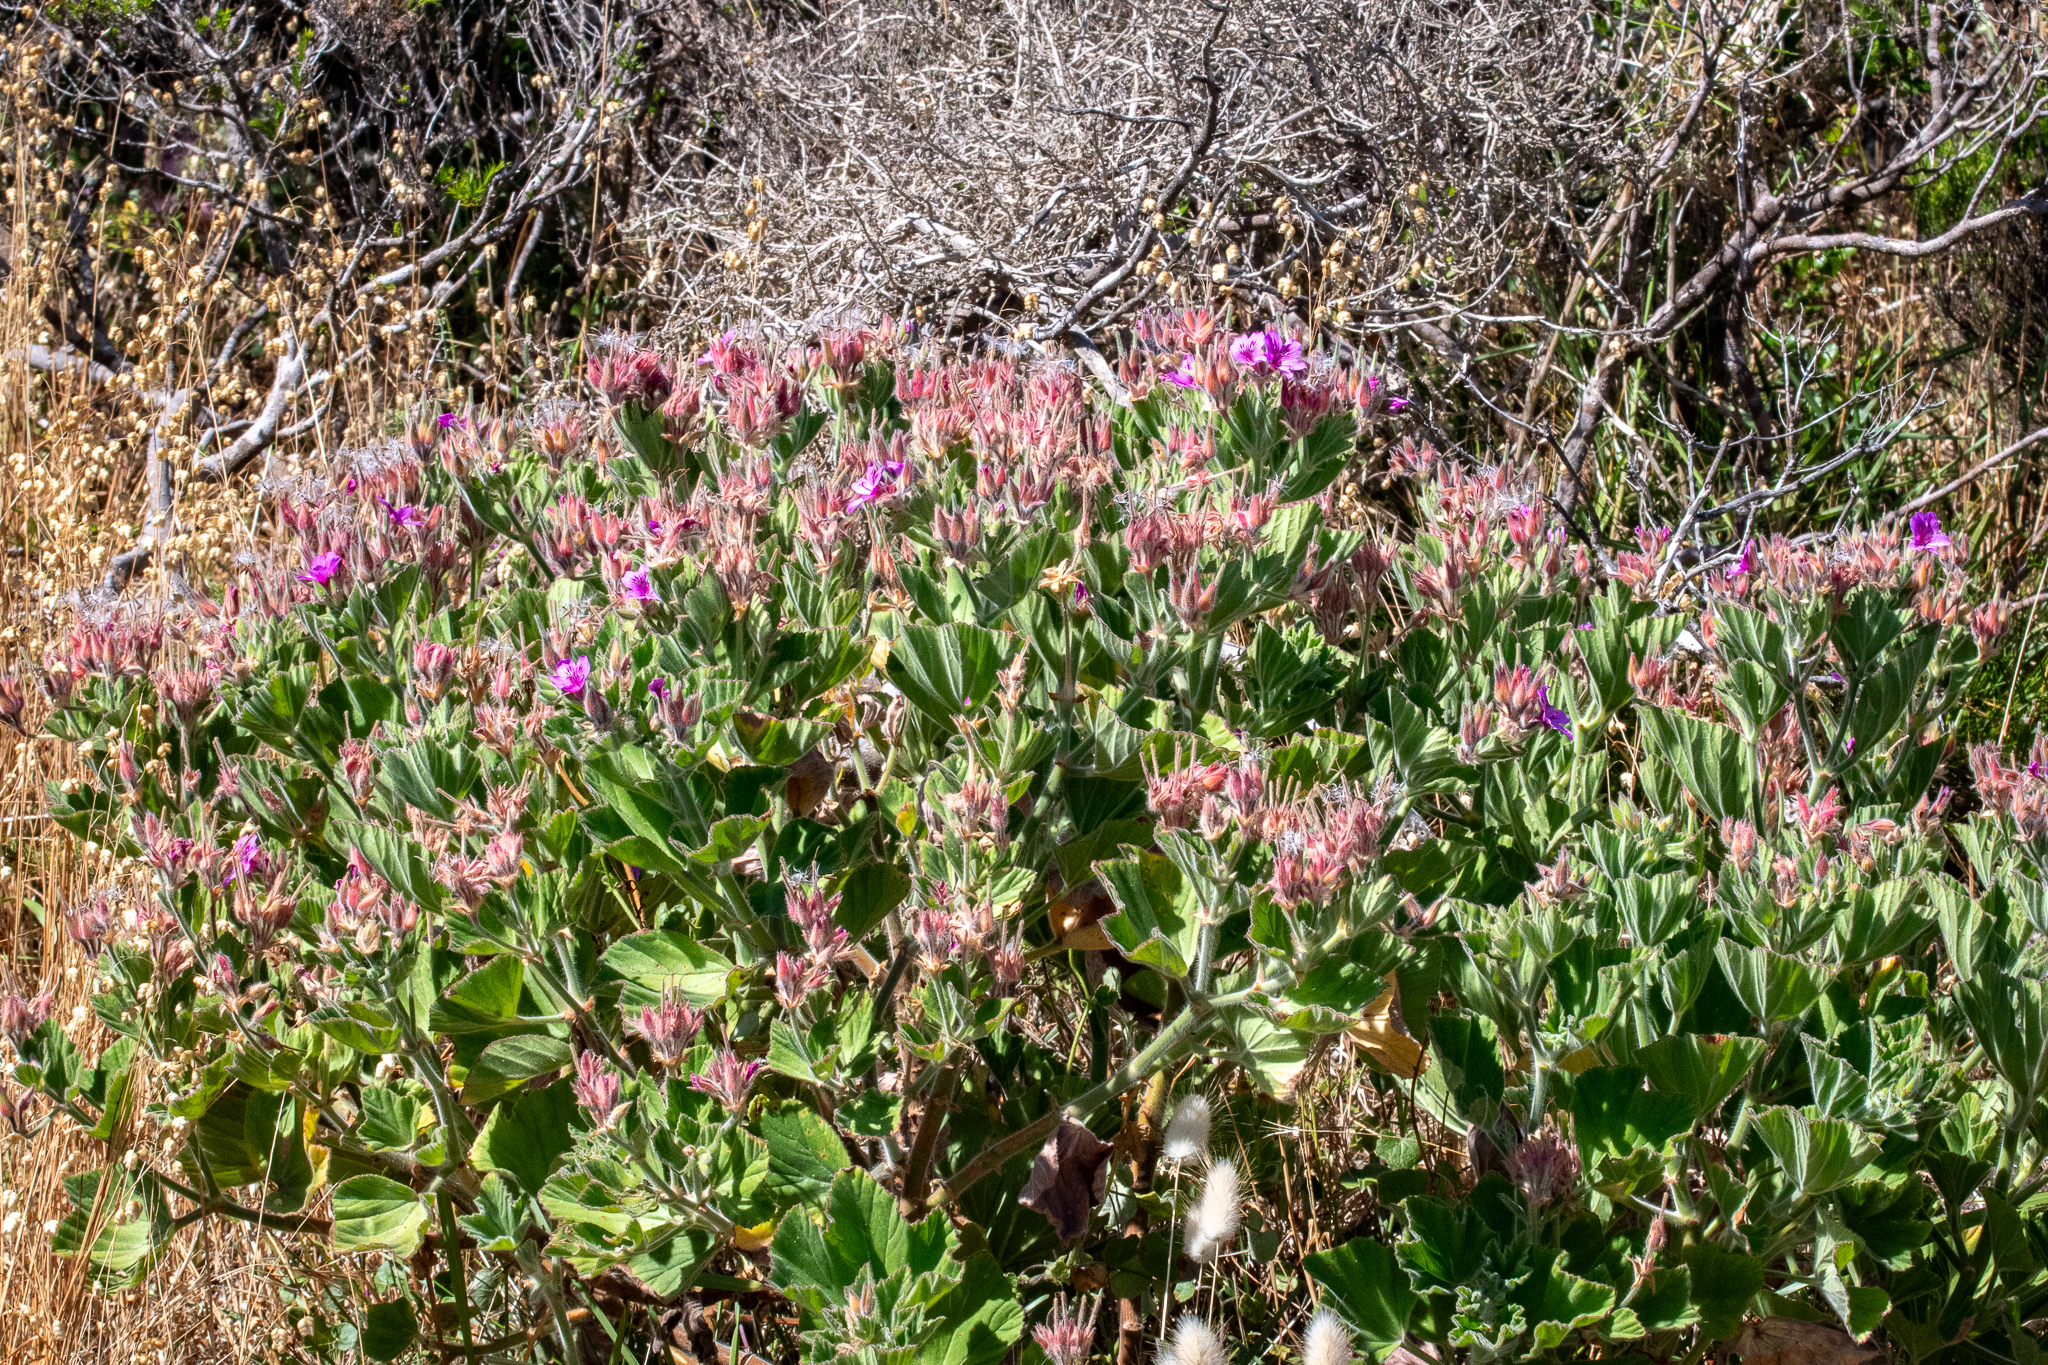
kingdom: Plantae
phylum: Tracheophyta
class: Magnoliopsida
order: Geraniales
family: Geraniaceae
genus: Pelargonium
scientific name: Pelargonium cucullatum
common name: Tree pelargonium
